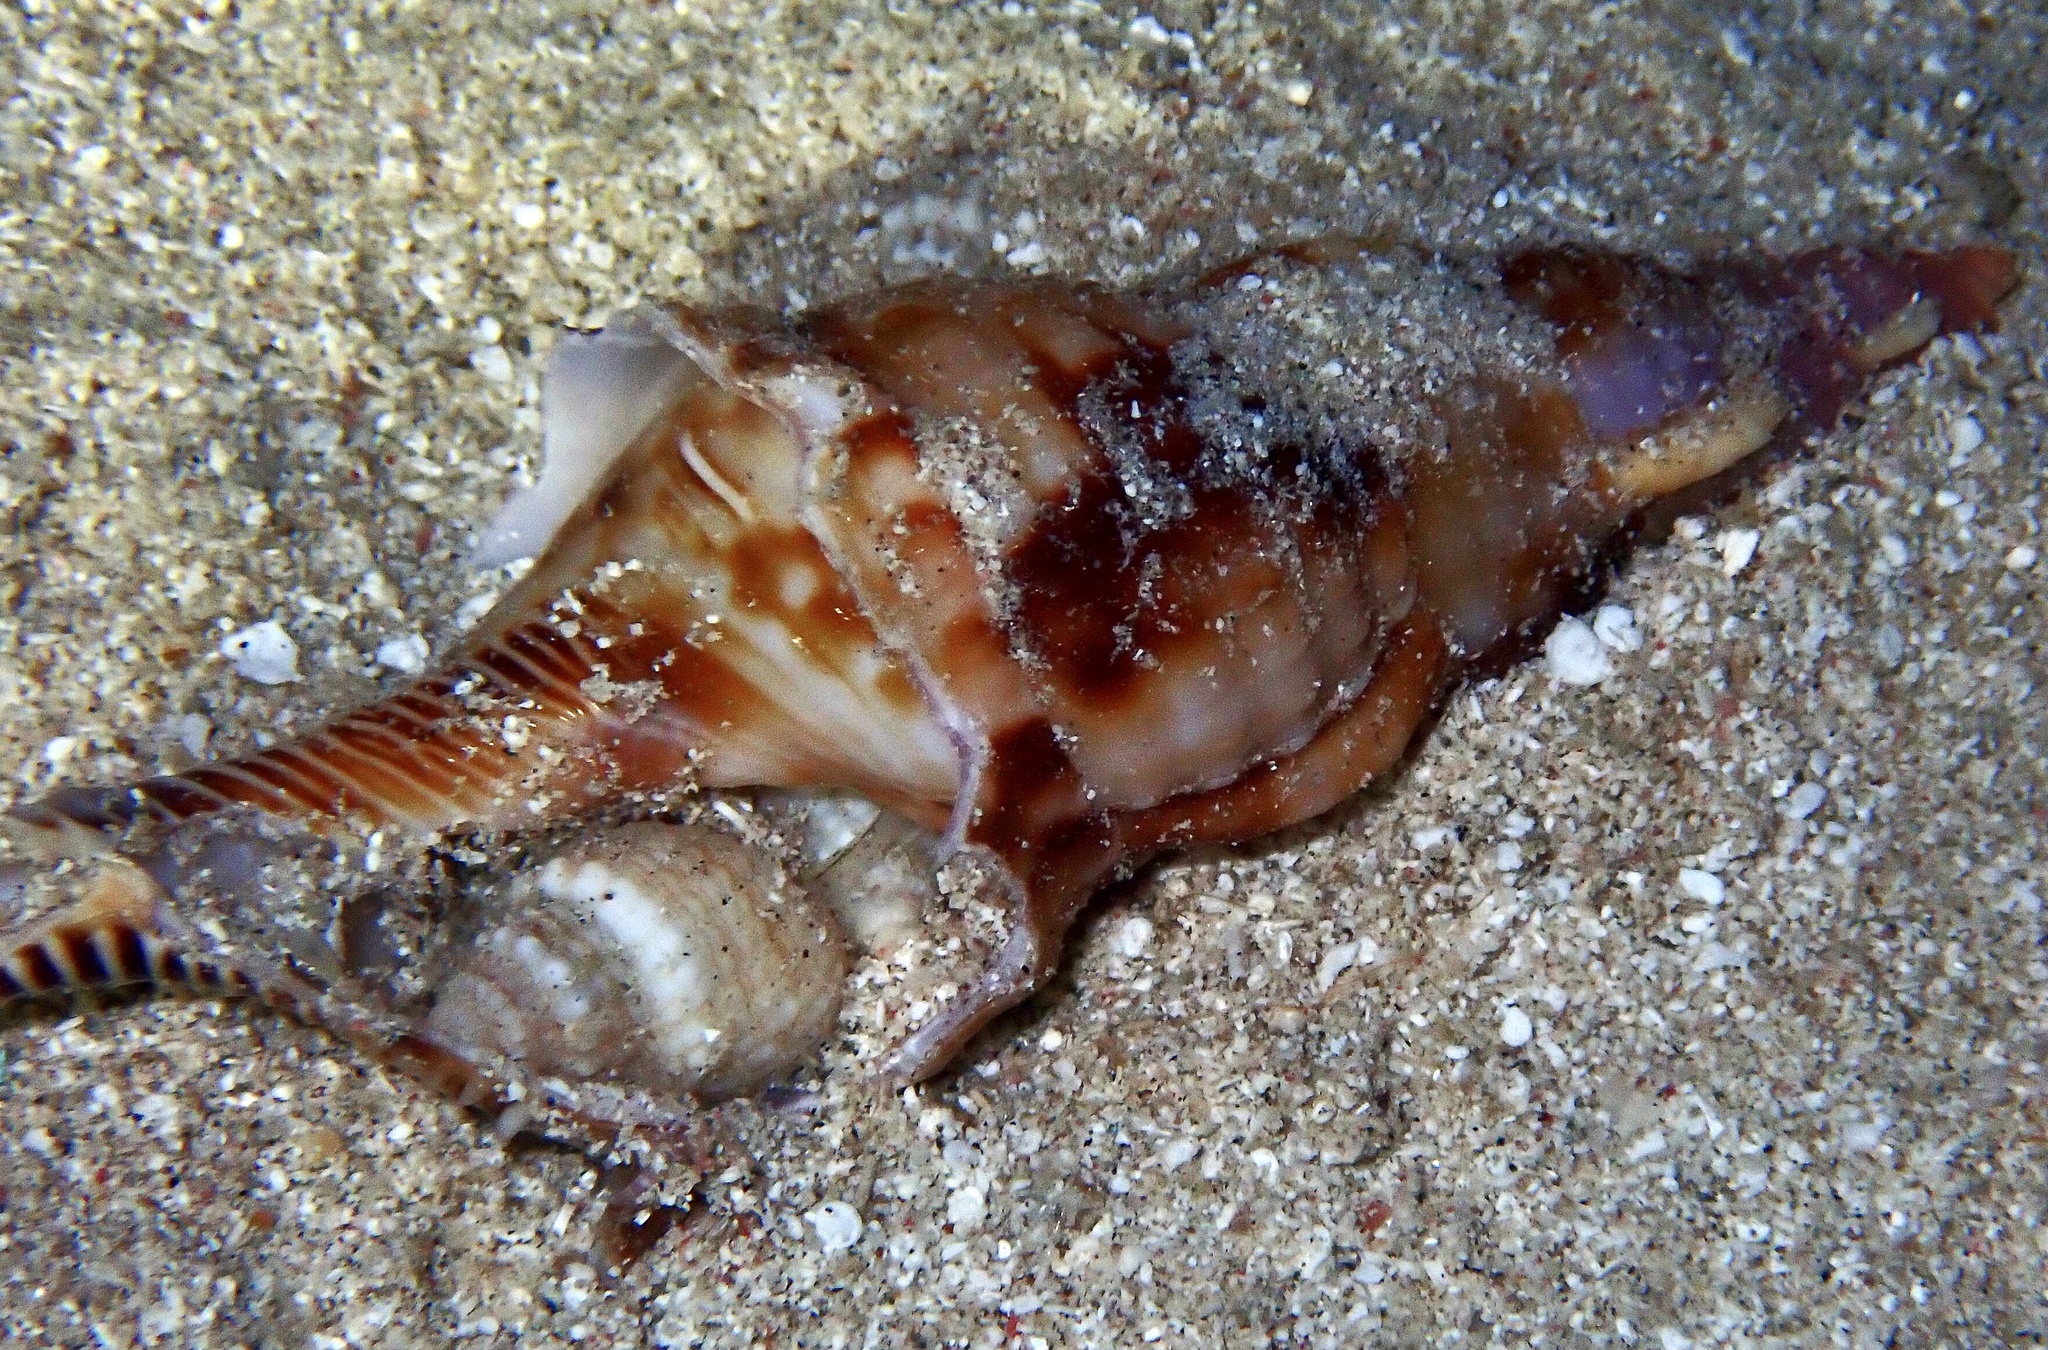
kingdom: Animalia
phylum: Mollusca
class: Gastropoda
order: Littorinimorpha
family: Charoniidae
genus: Charonia
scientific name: Charonia tritonis
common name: Pacific triton
